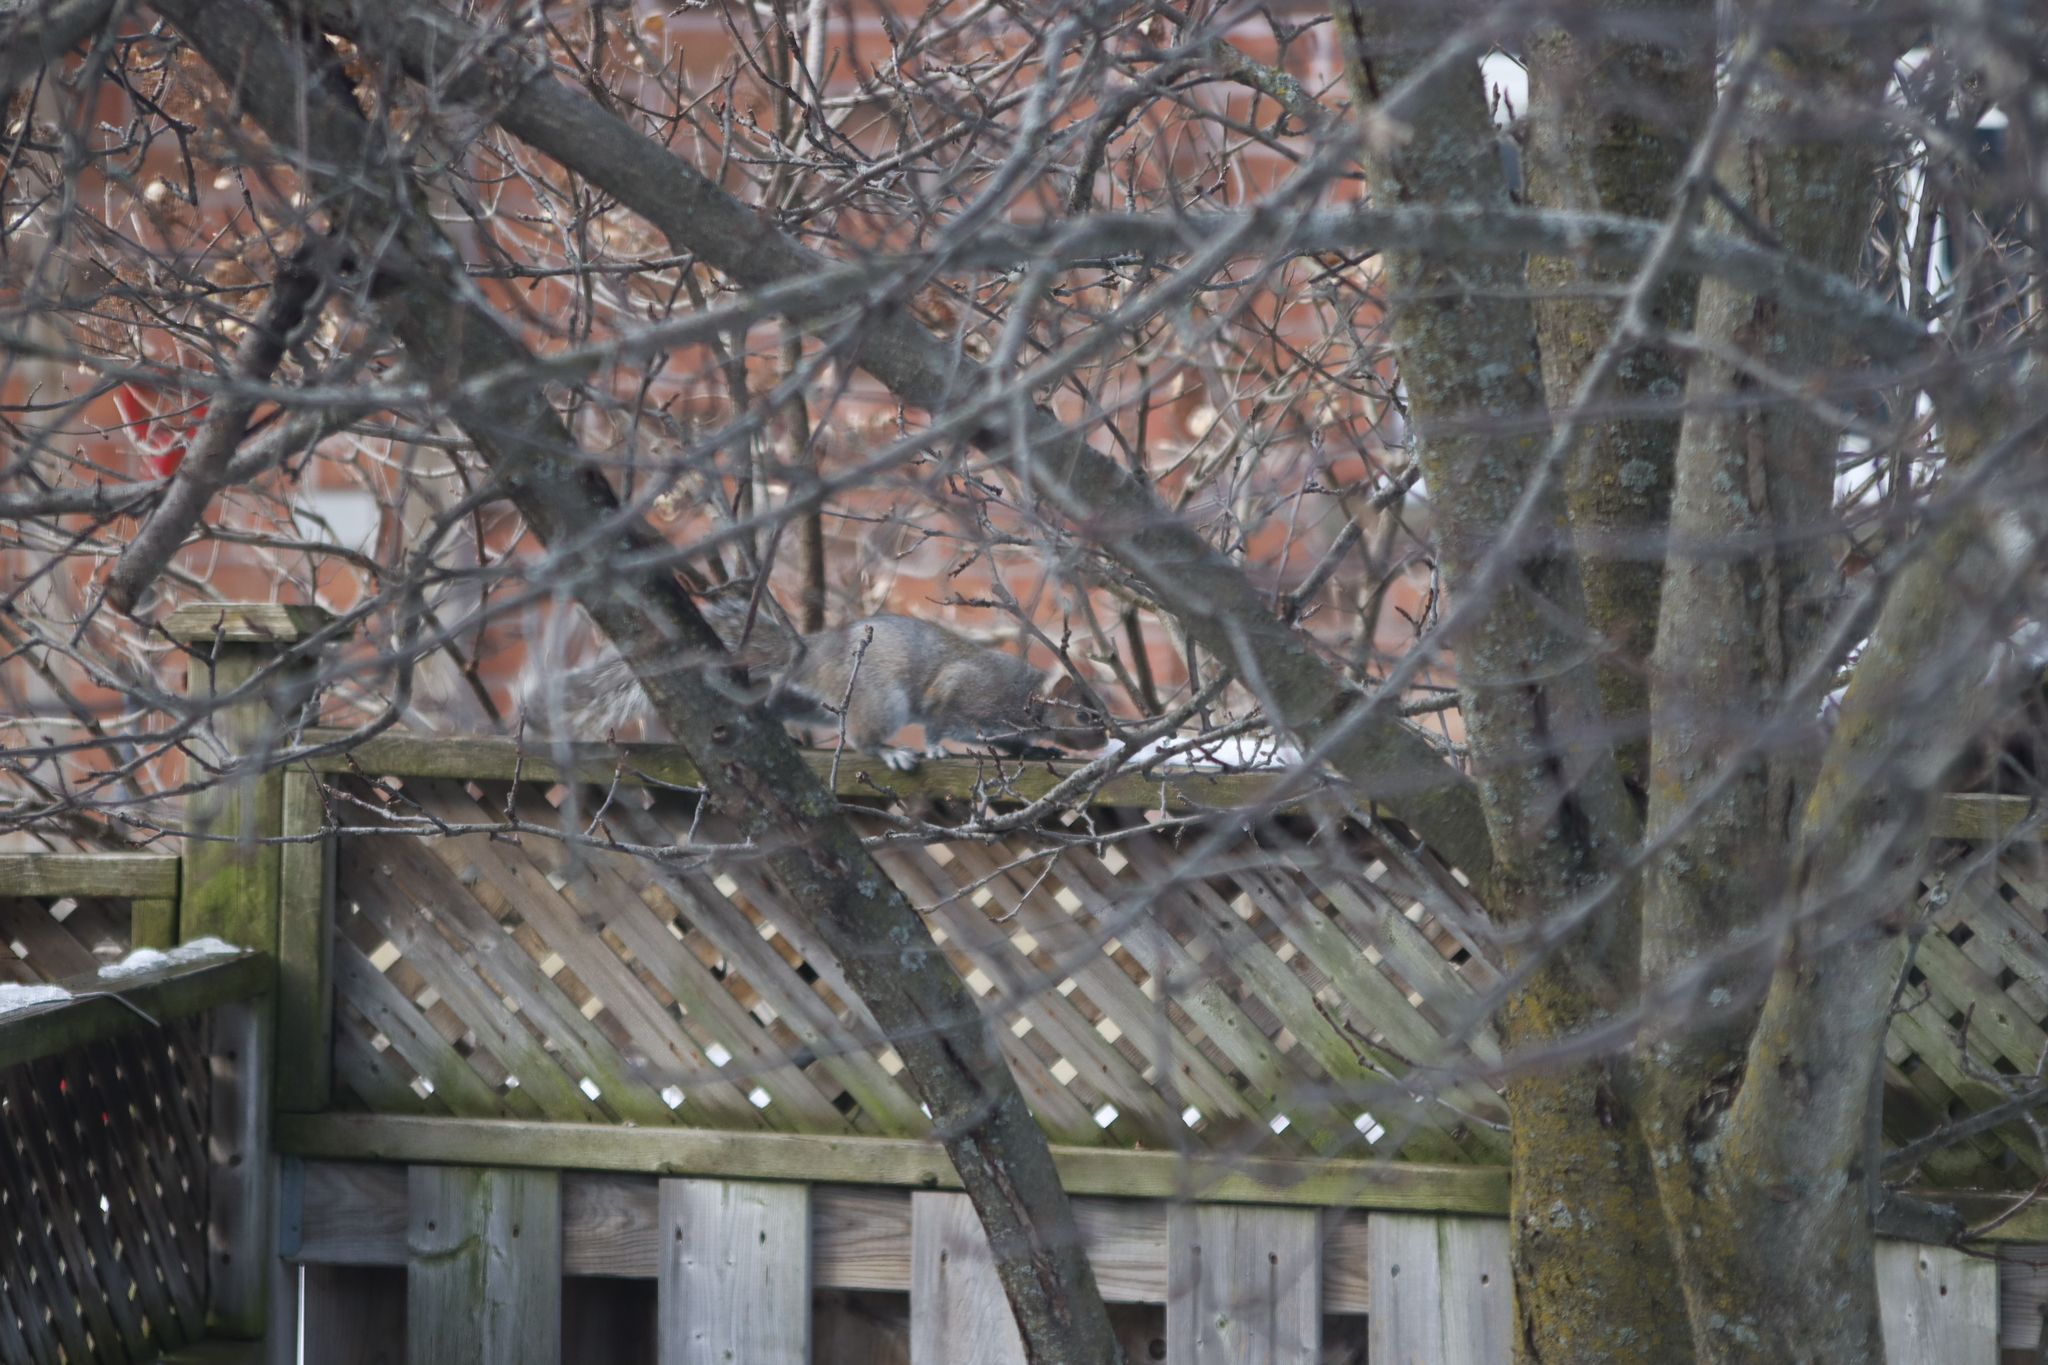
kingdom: Animalia
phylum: Chordata
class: Mammalia
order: Rodentia
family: Sciuridae
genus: Sciurus
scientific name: Sciurus carolinensis
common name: Eastern gray squirrel
